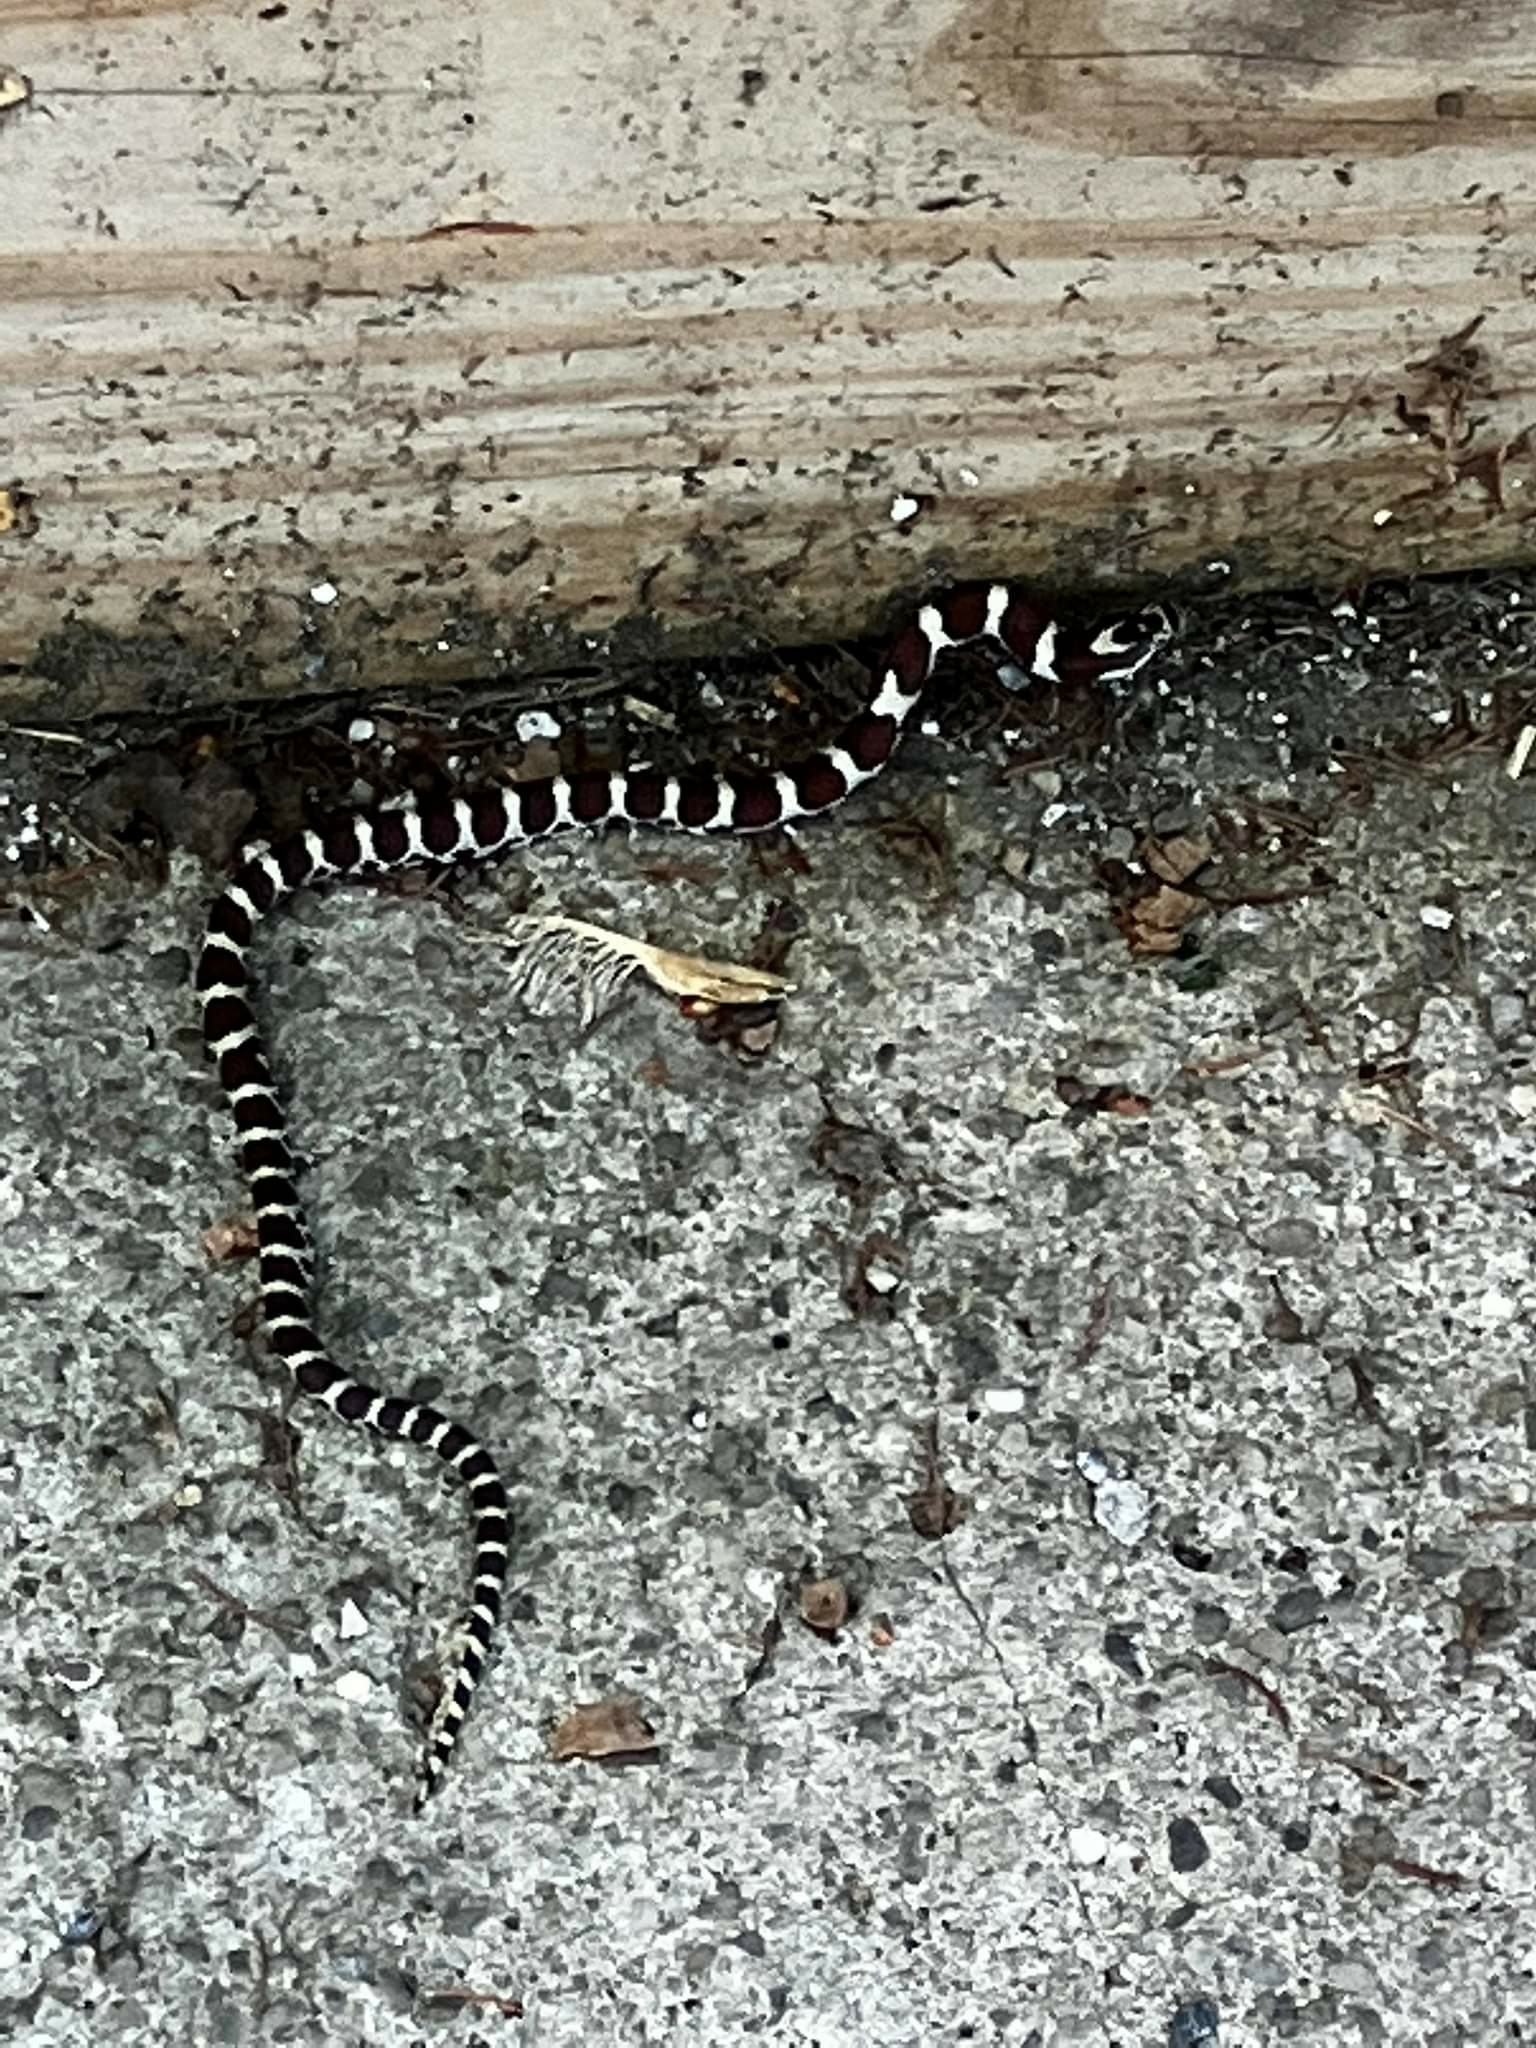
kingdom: Animalia
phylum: Chordata
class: Squamata
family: Colubridae
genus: Lampropeltis
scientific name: Lampropeltis triangulum
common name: Eastern milksnake
